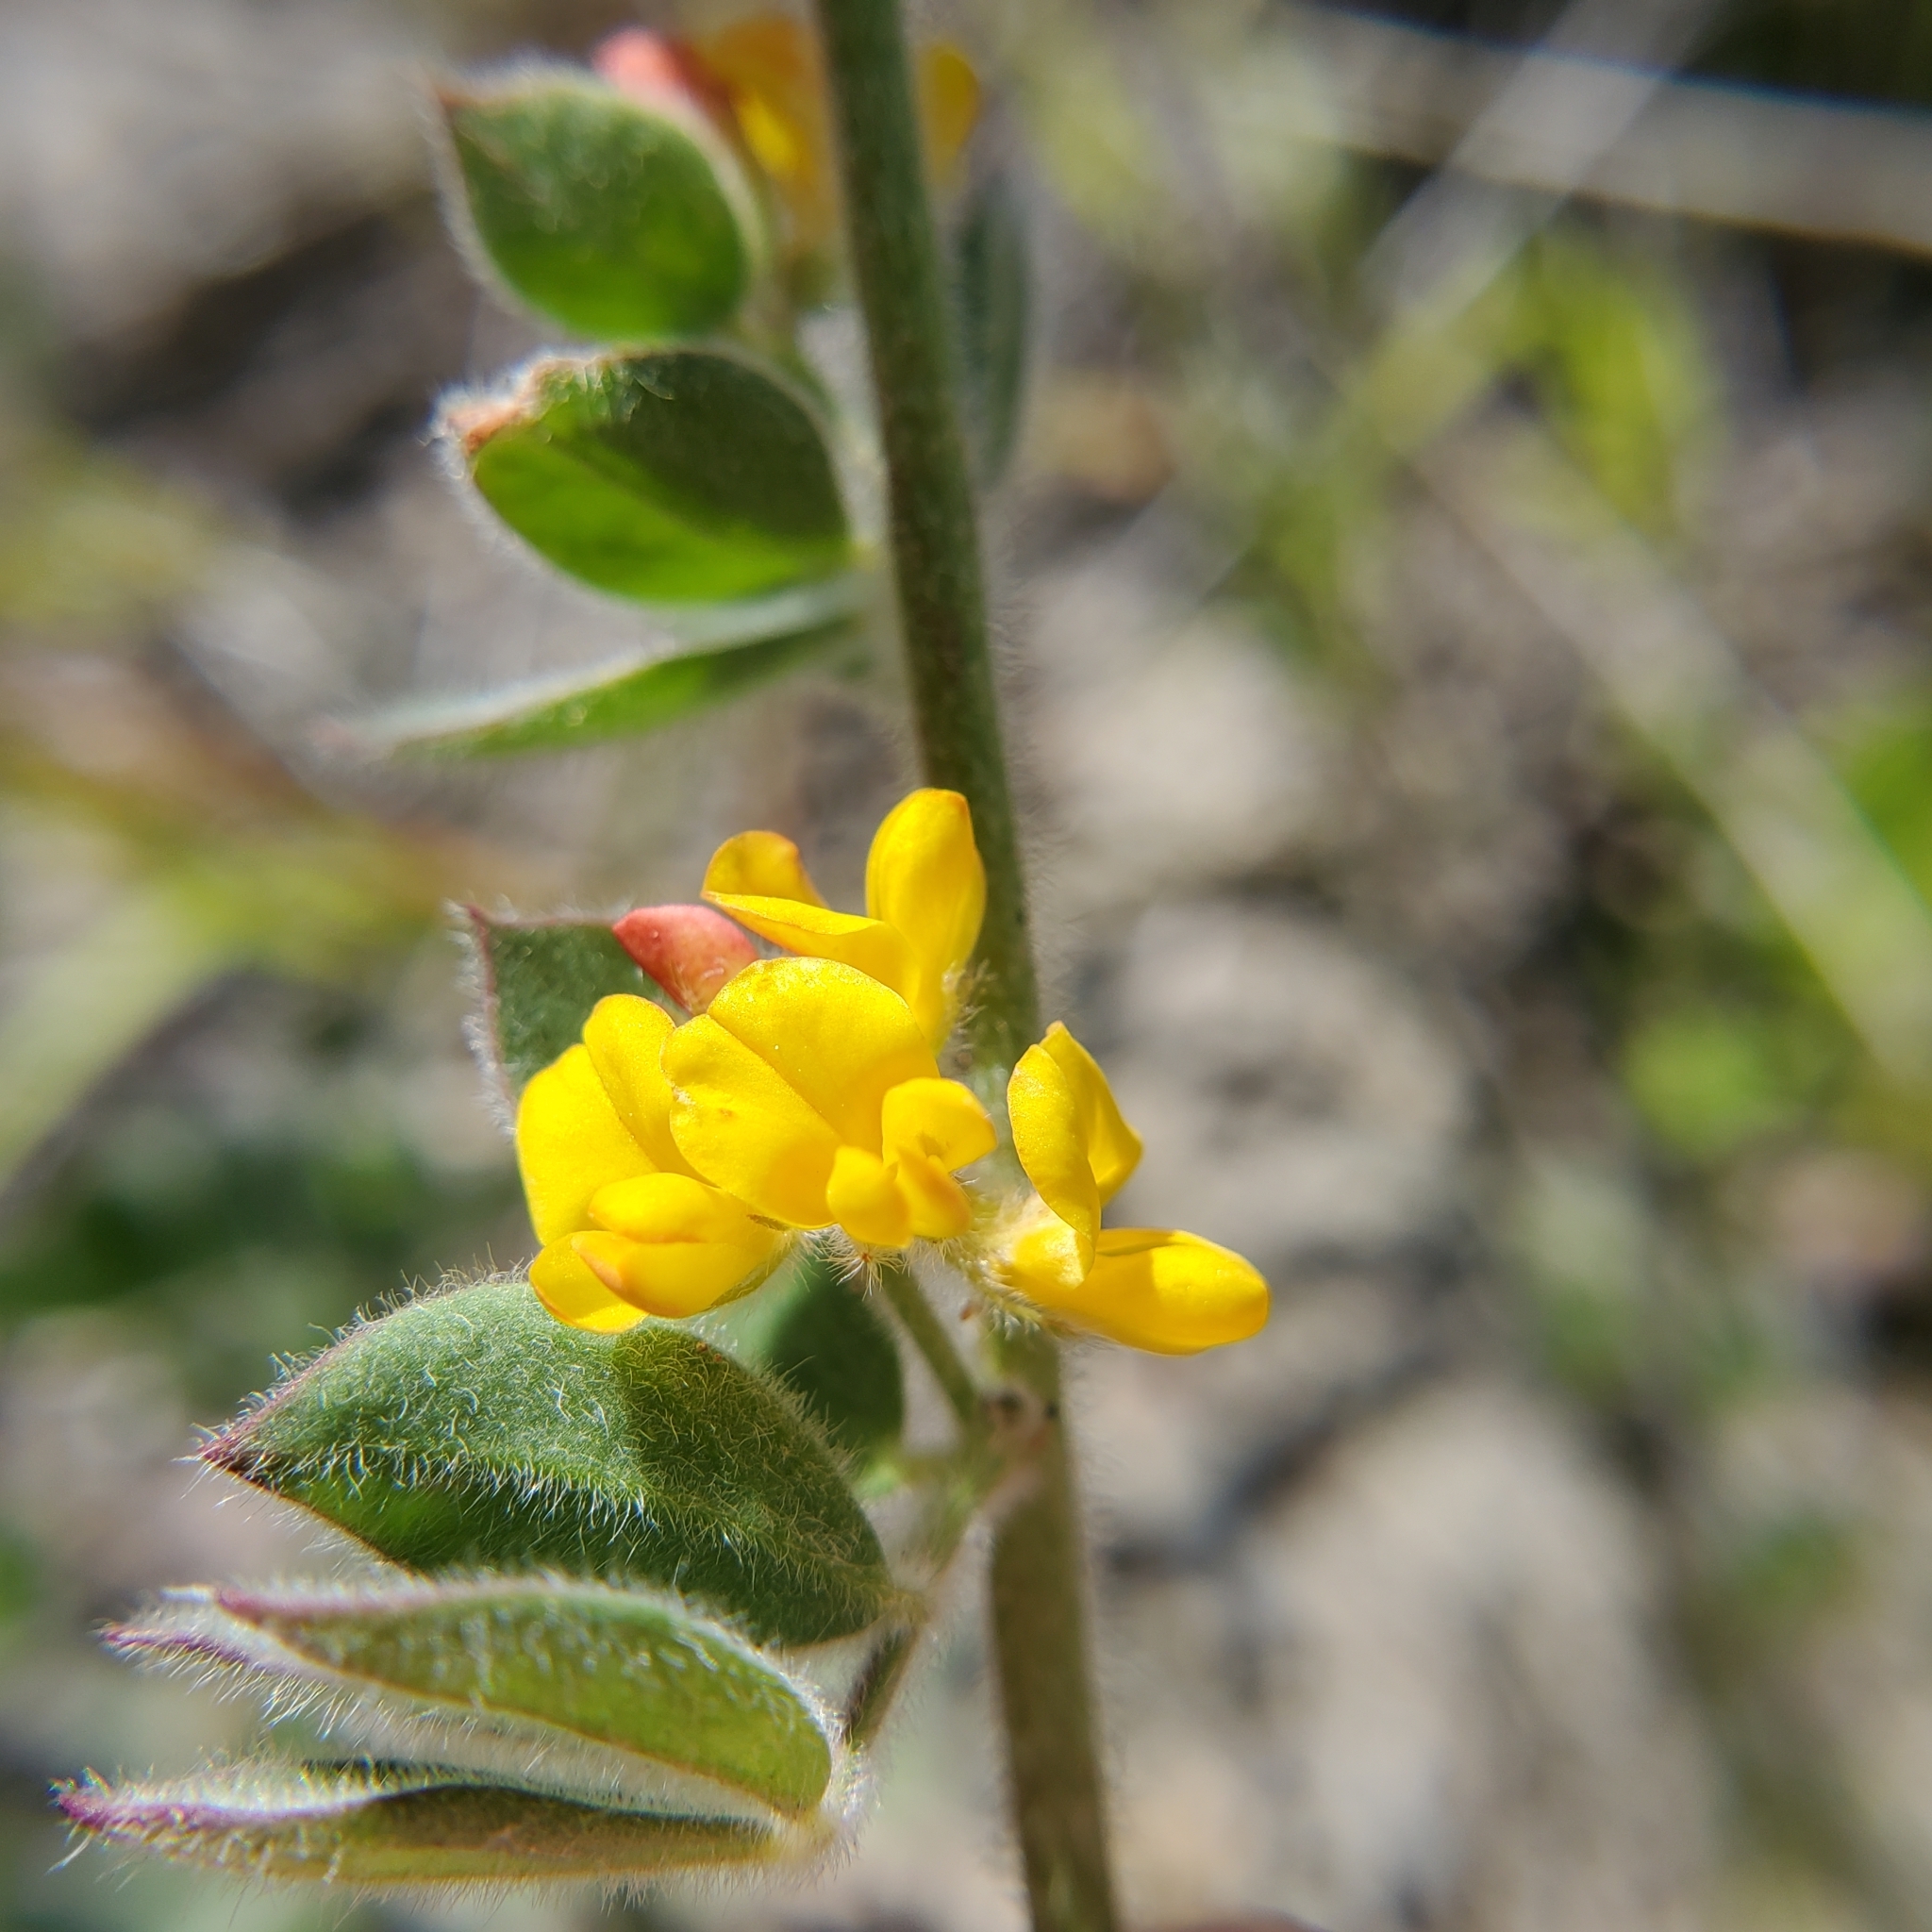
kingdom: Plantae
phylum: Tracheophyta
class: Magnoliopsida
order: Fabales
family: Fabaceae
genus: Acmispon
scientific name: Acmispon tomentosus
